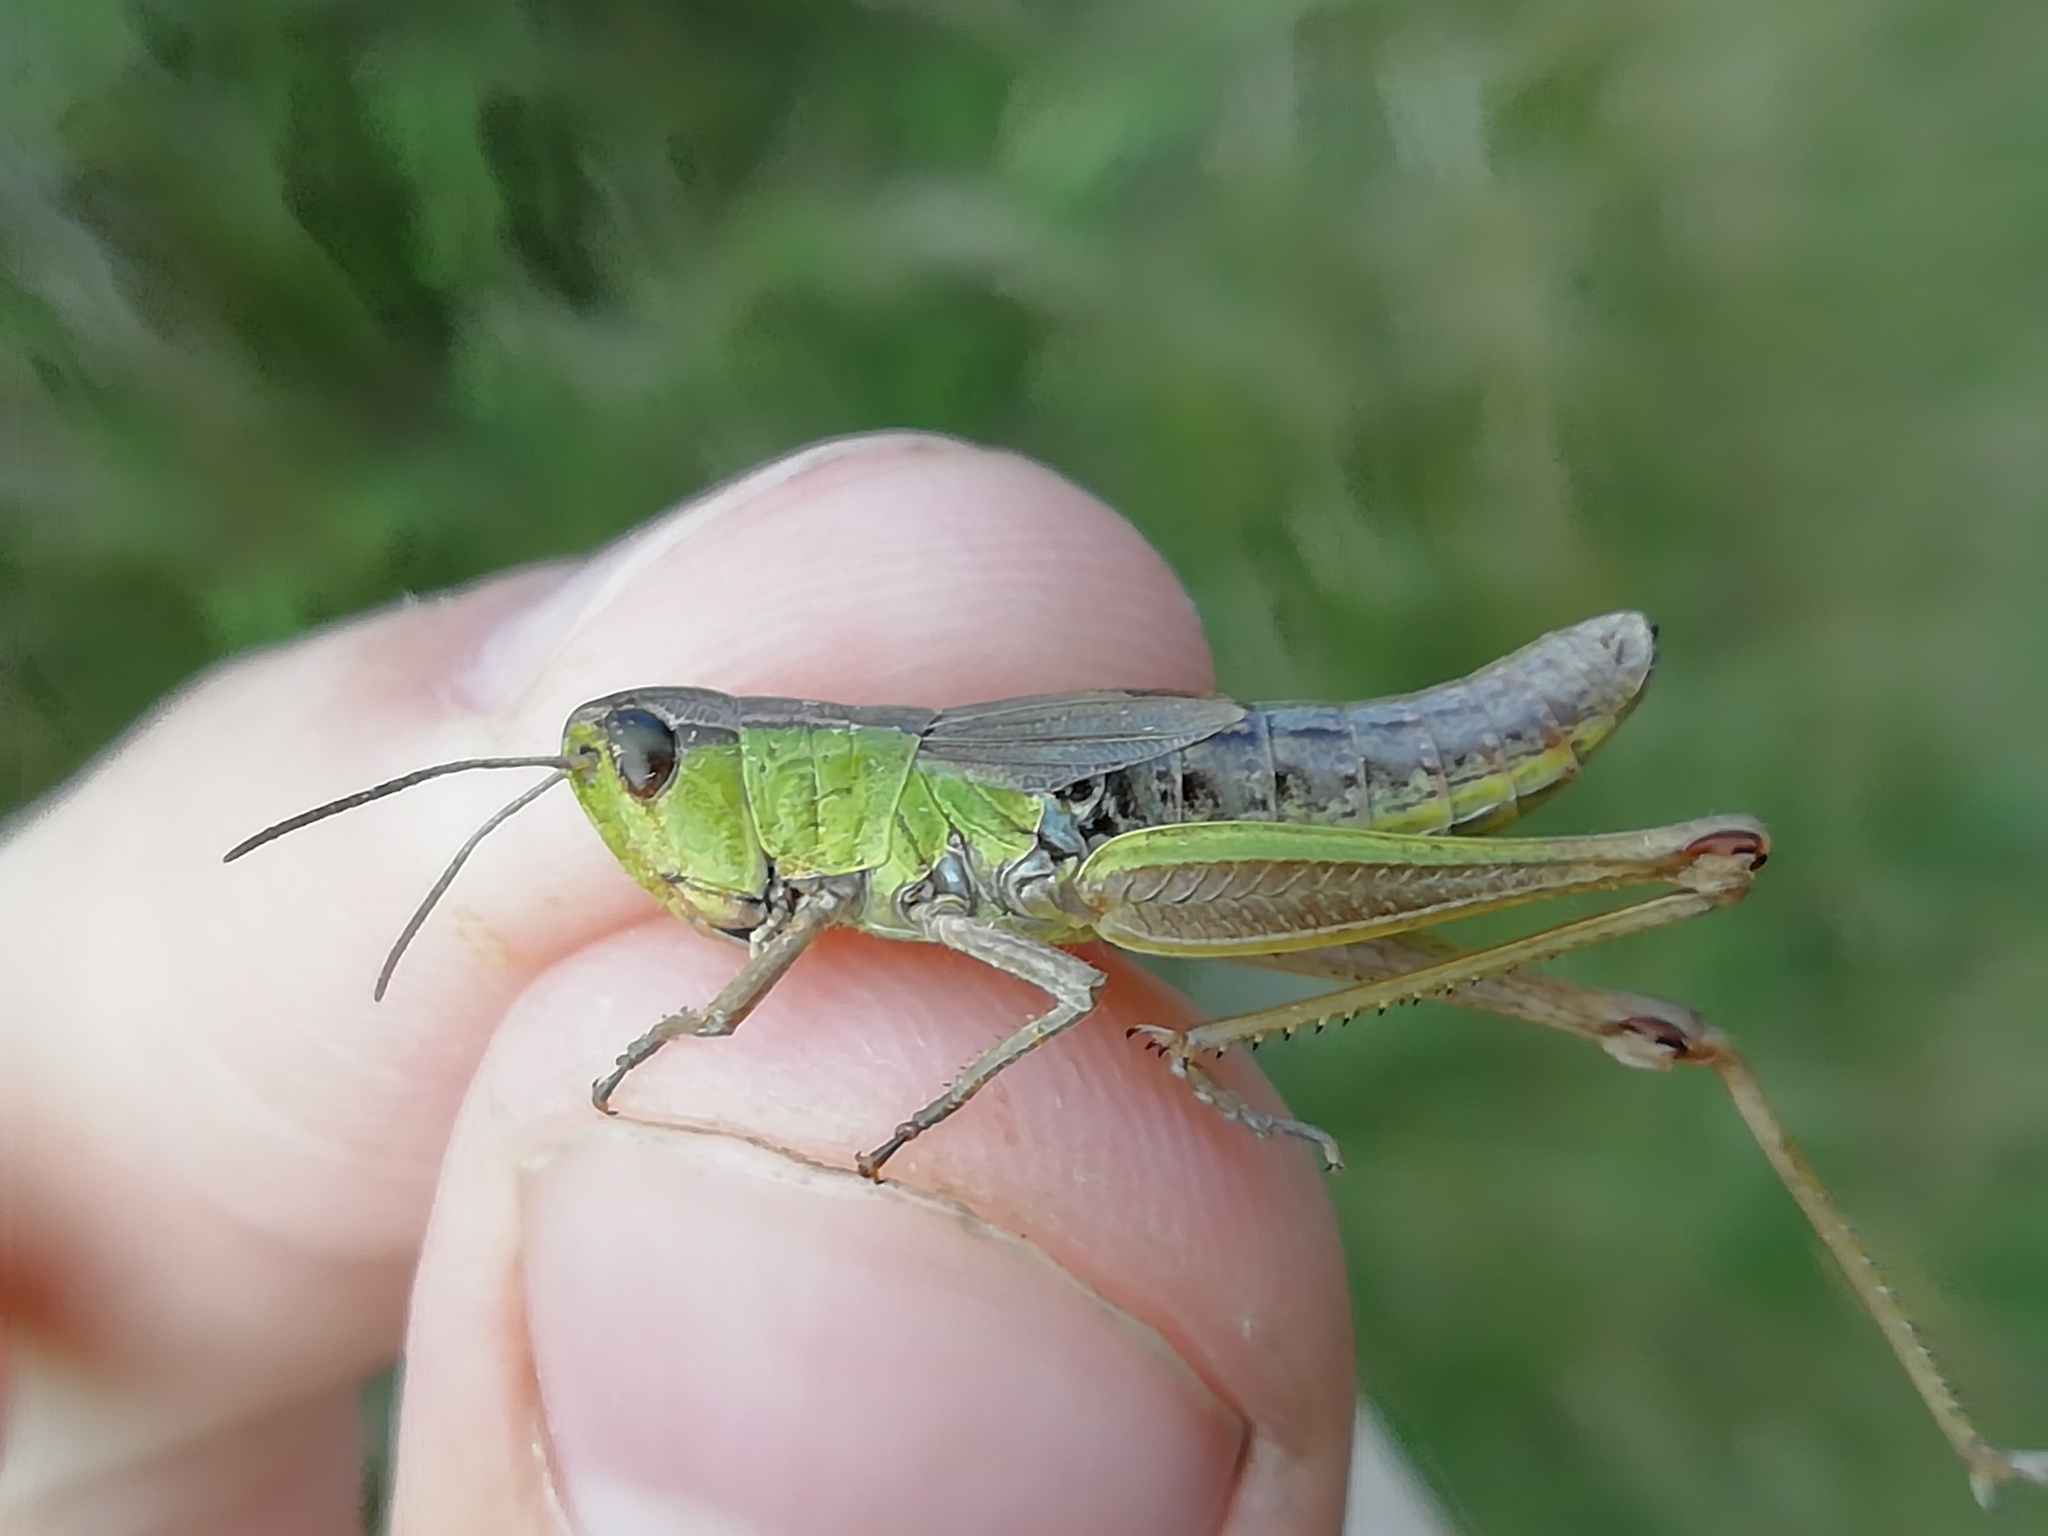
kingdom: Animalia
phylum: Arthropoda
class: Insecta
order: Orthoptera
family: Acrididae
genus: Pseudochorthippus
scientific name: Pseudochorthippus parallelus
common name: Meadow grasshopper
